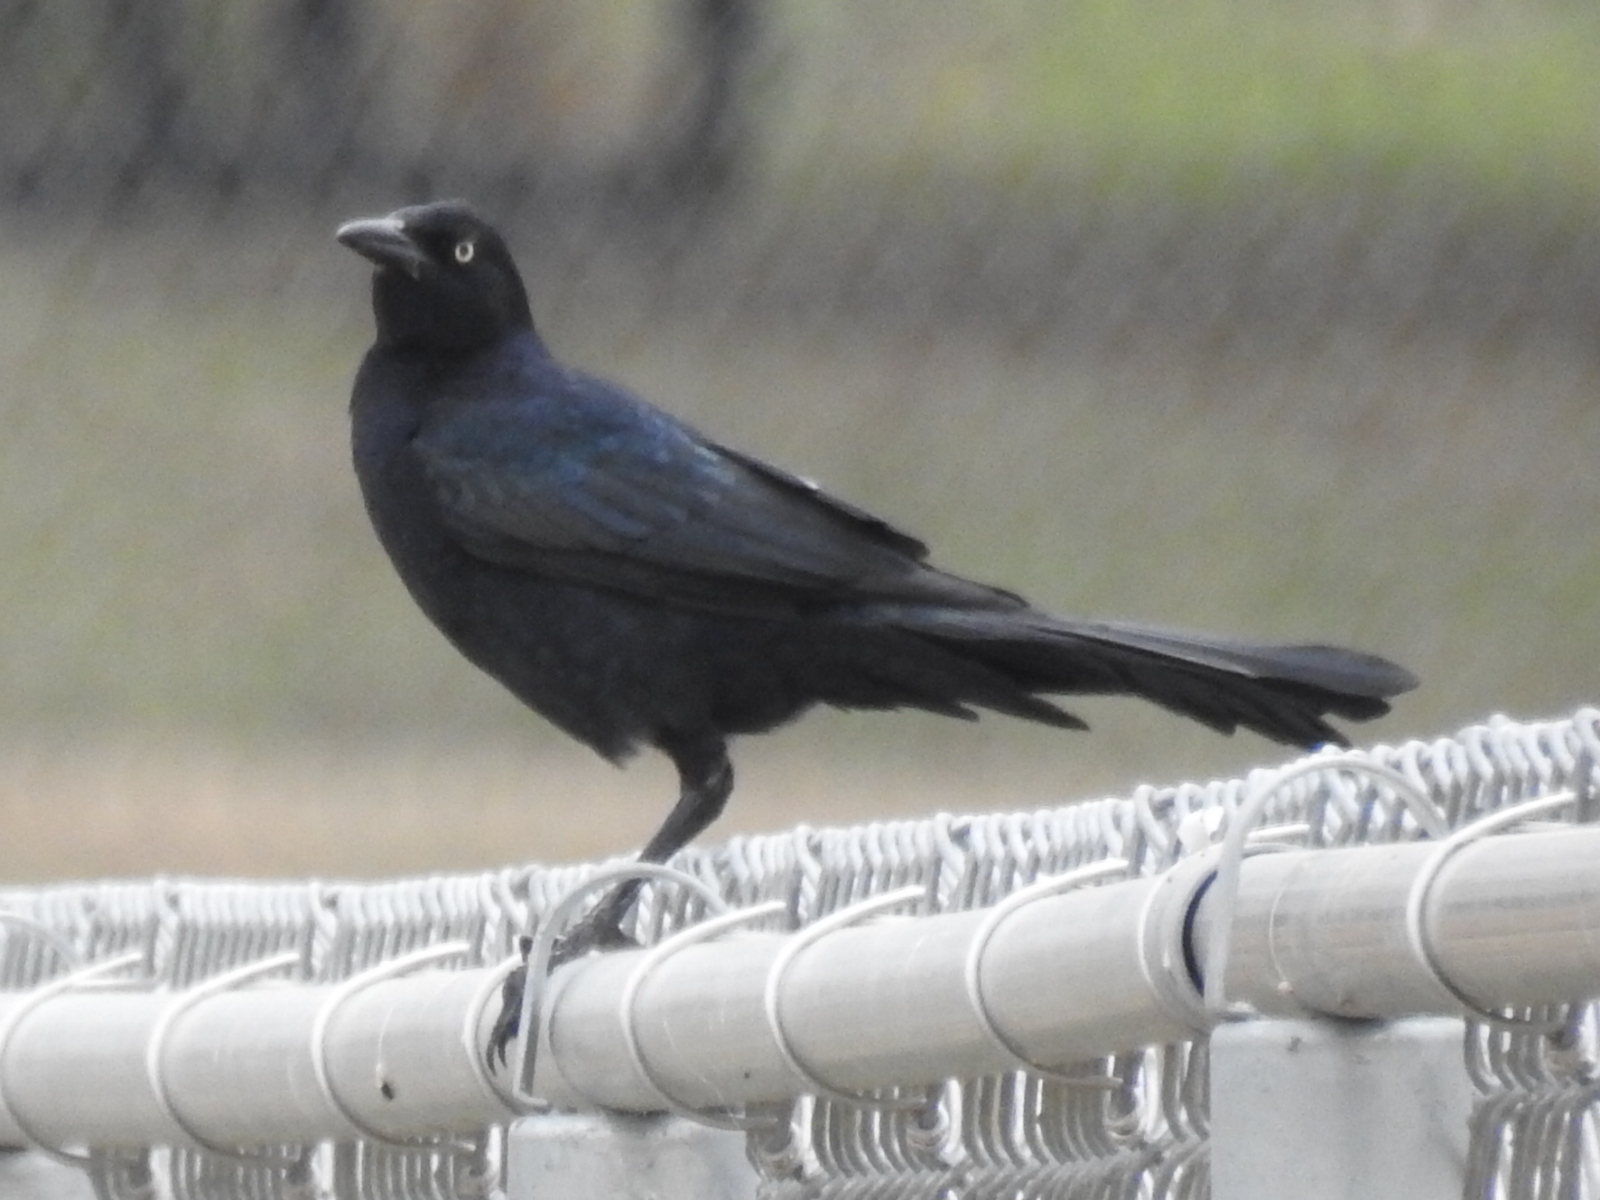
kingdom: Animalia
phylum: Chordata
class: Aves
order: Passeriformes
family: Icteridae
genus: Quiscalus
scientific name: Quiscalus mexicanus
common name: Great-tailed grackle
